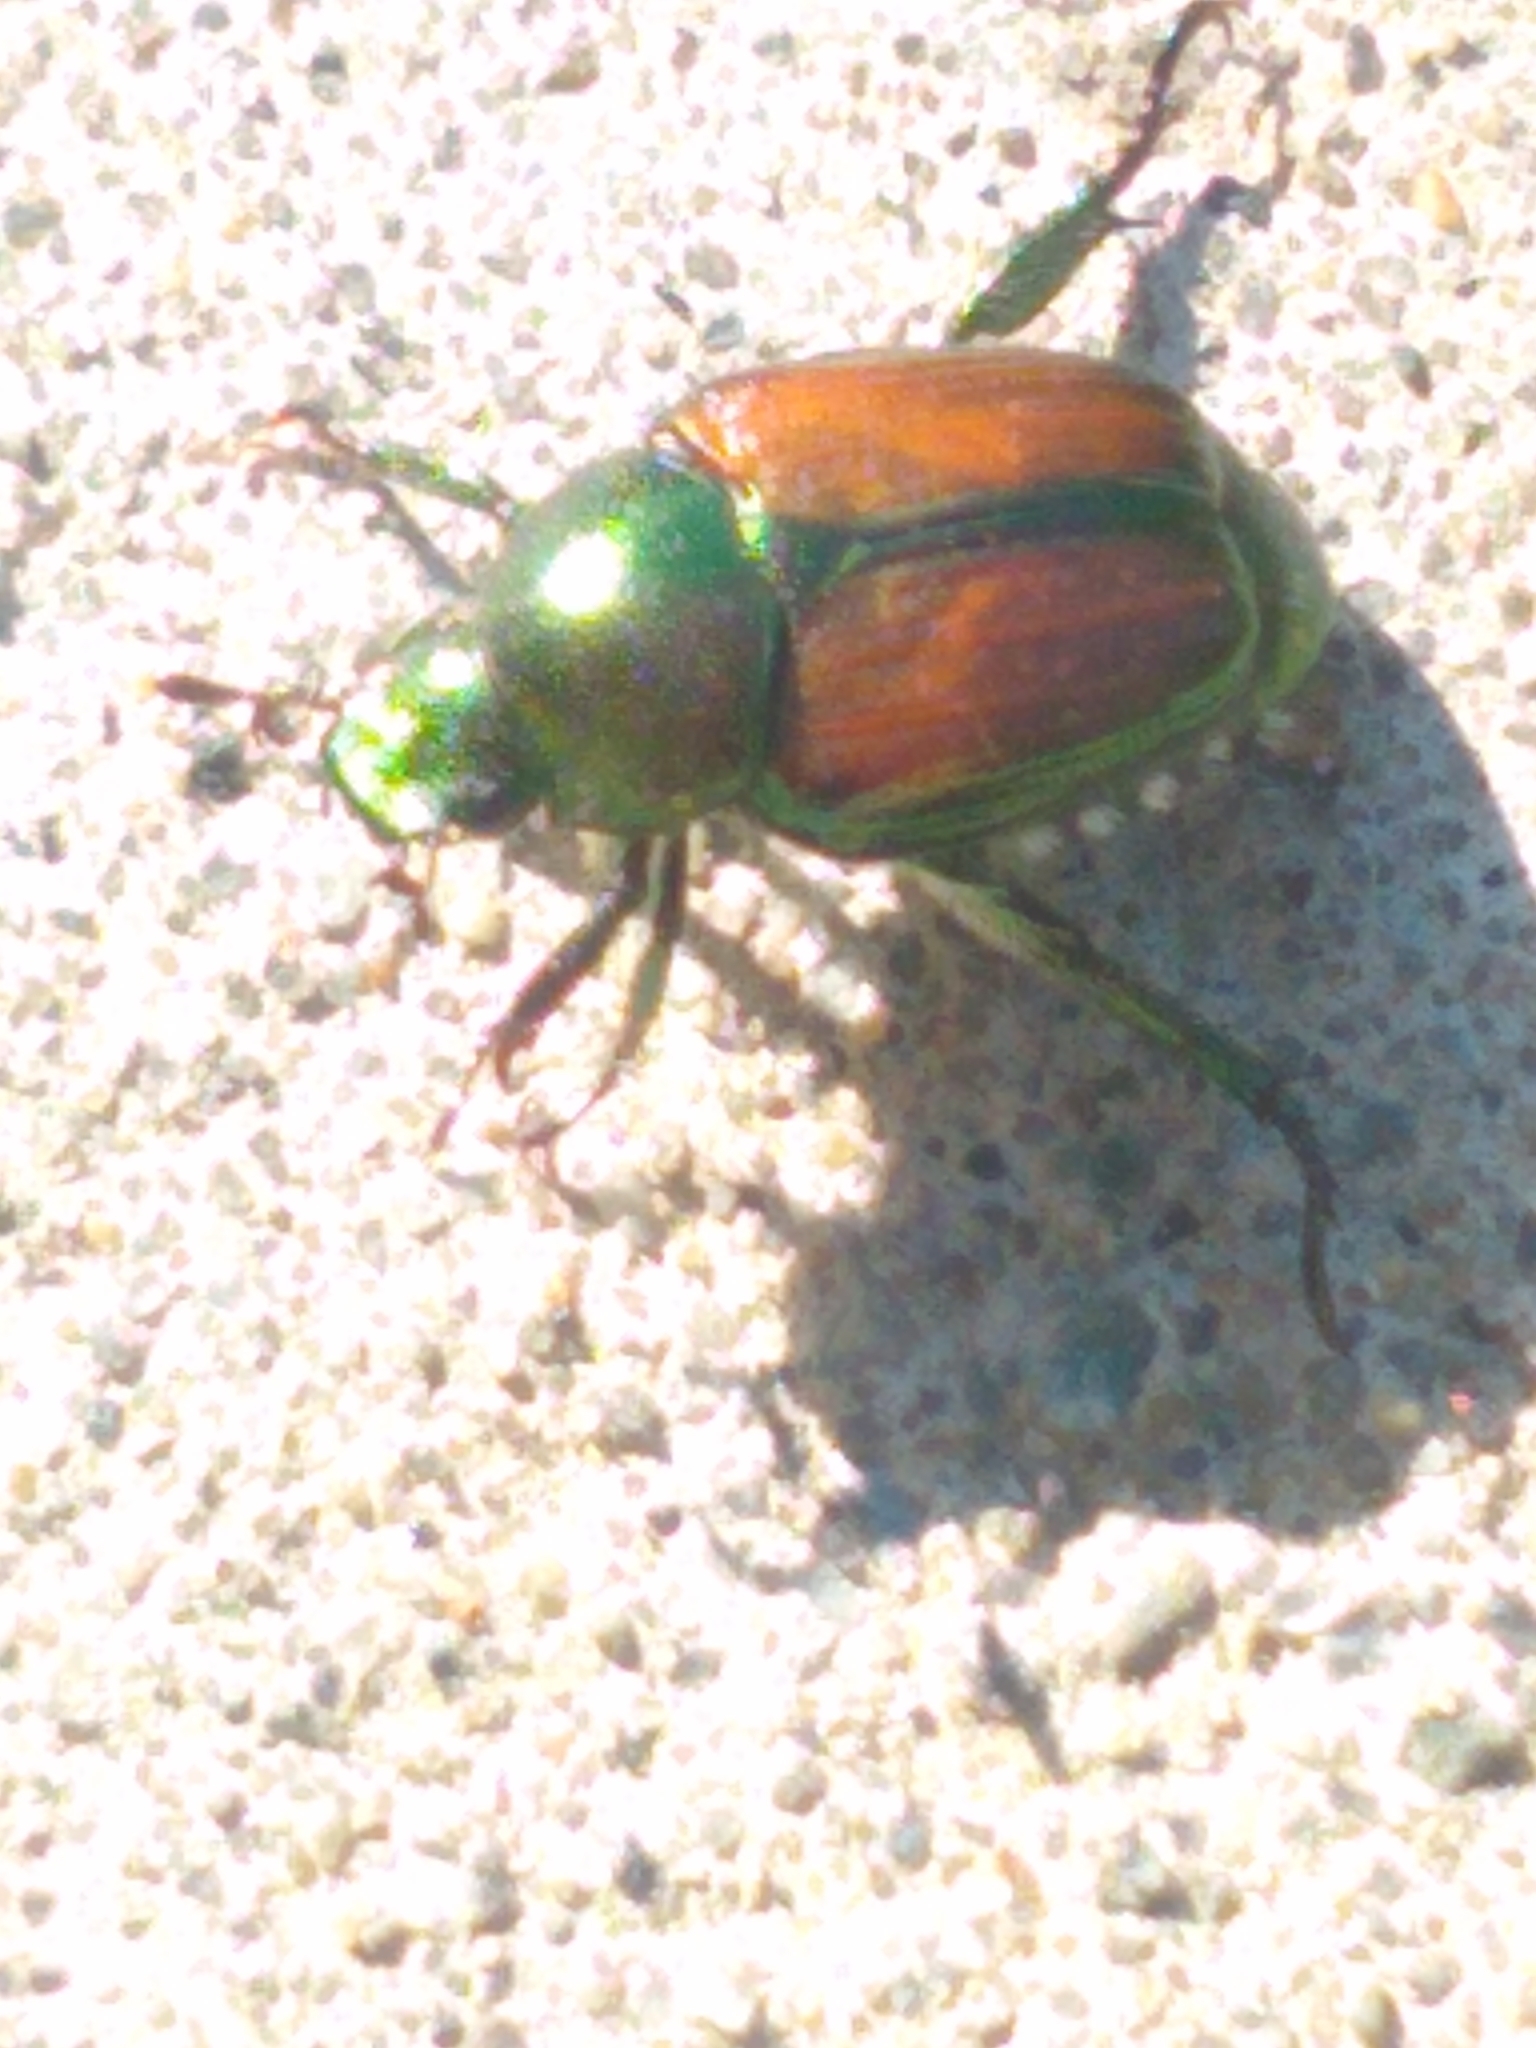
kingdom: Animalia
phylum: Arthropoda
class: Insecta
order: Coleoptera
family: Scarabaeidae
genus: Popillia
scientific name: Popillia japonica
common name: Japanese beetle
